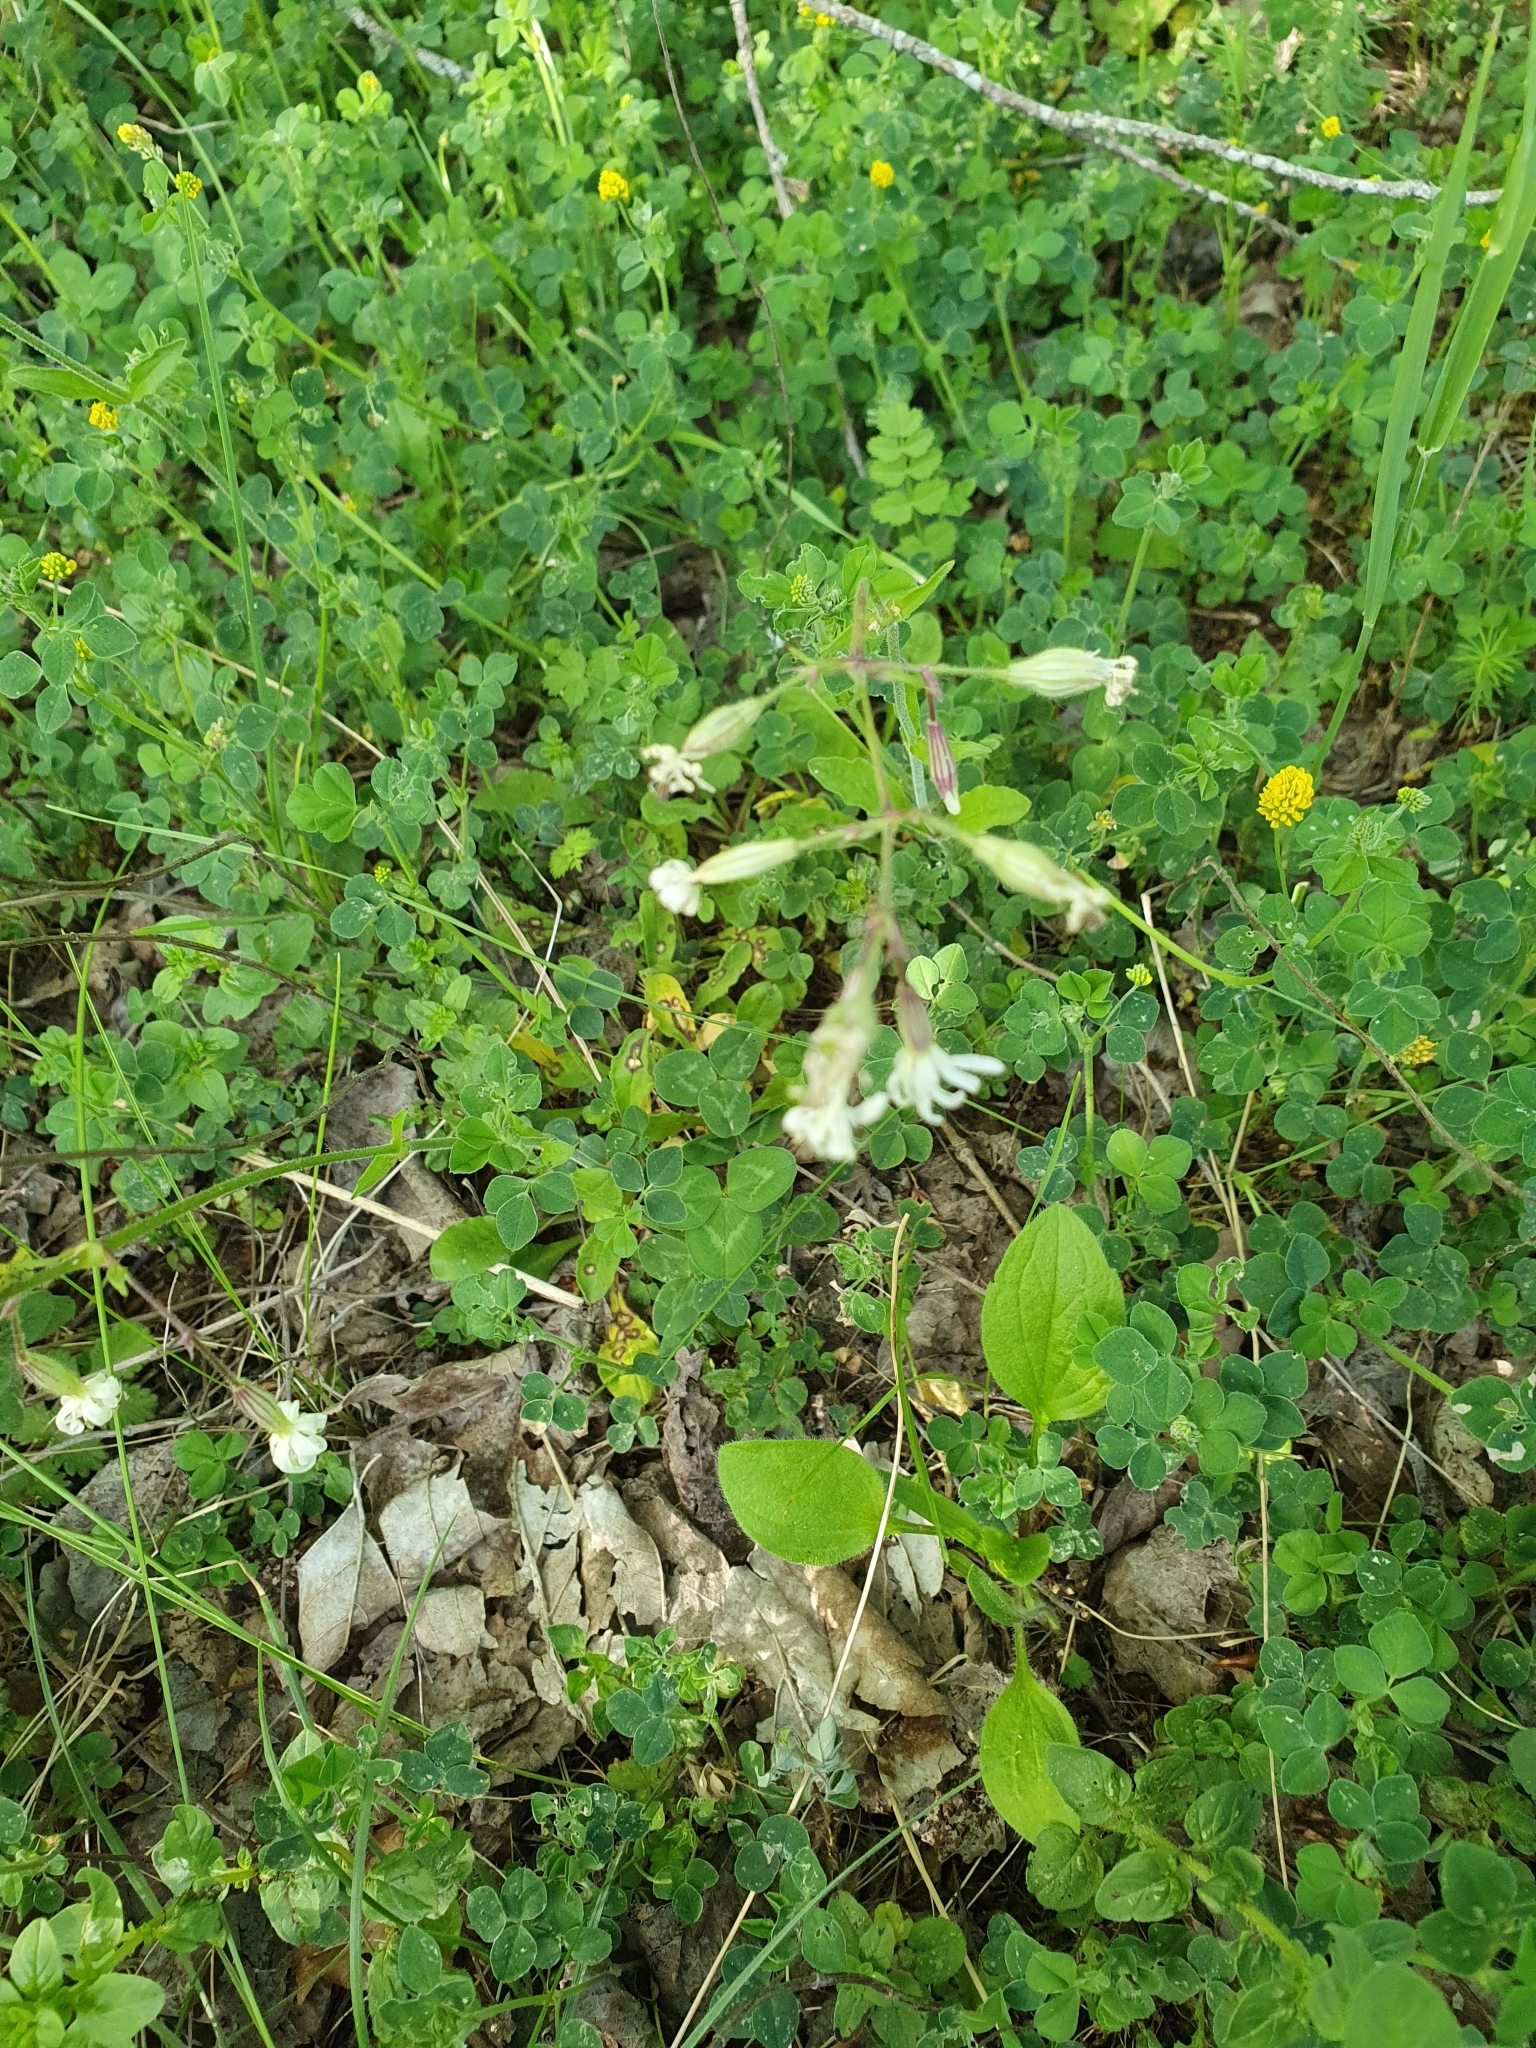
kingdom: Plantae
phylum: Tracheophyta
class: Magnoliopsida
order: Caryophyllales
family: Caryophyllaceae
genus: Silene
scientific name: Silene nutans
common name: Nottingham catchfly
